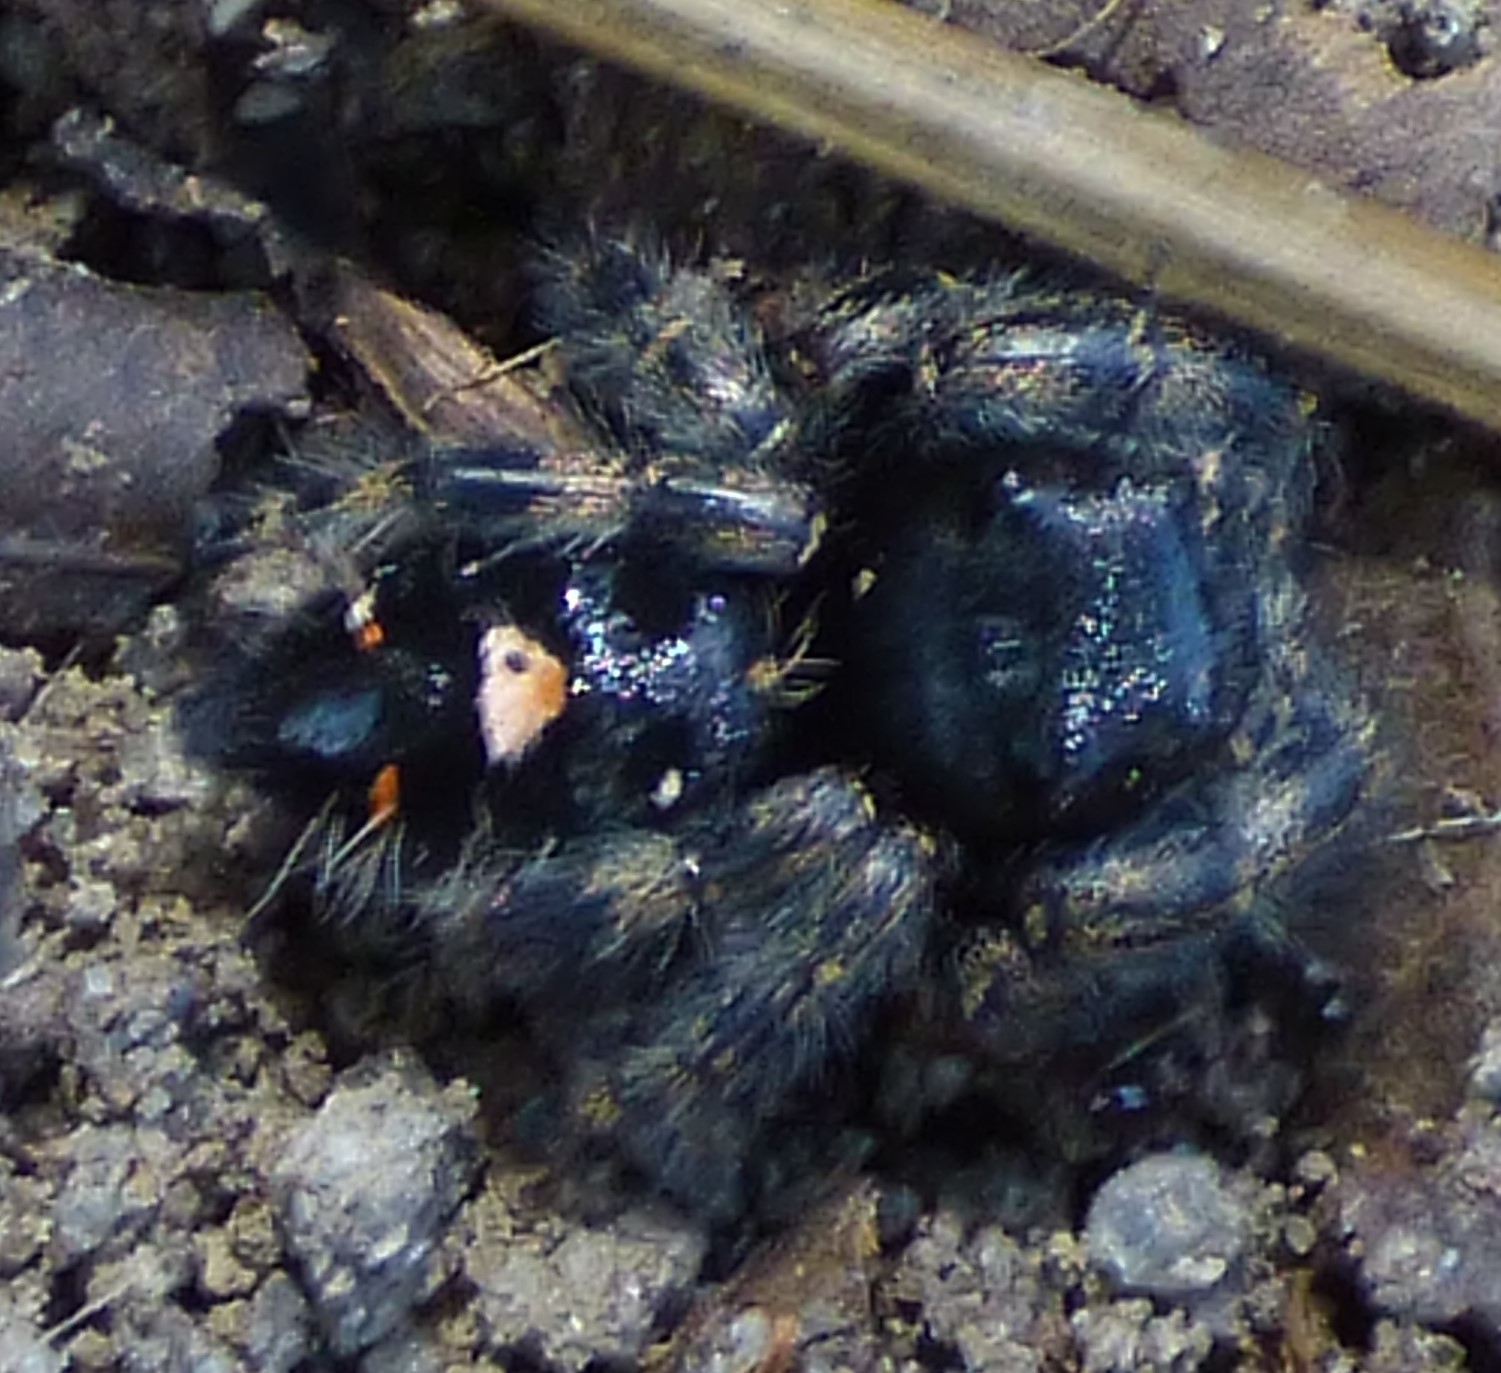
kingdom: Animalia
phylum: Arthropoda
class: Arachnida
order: Araneae
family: Salticidae
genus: Phidippus
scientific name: Phidippus audax
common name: Bold jumper
